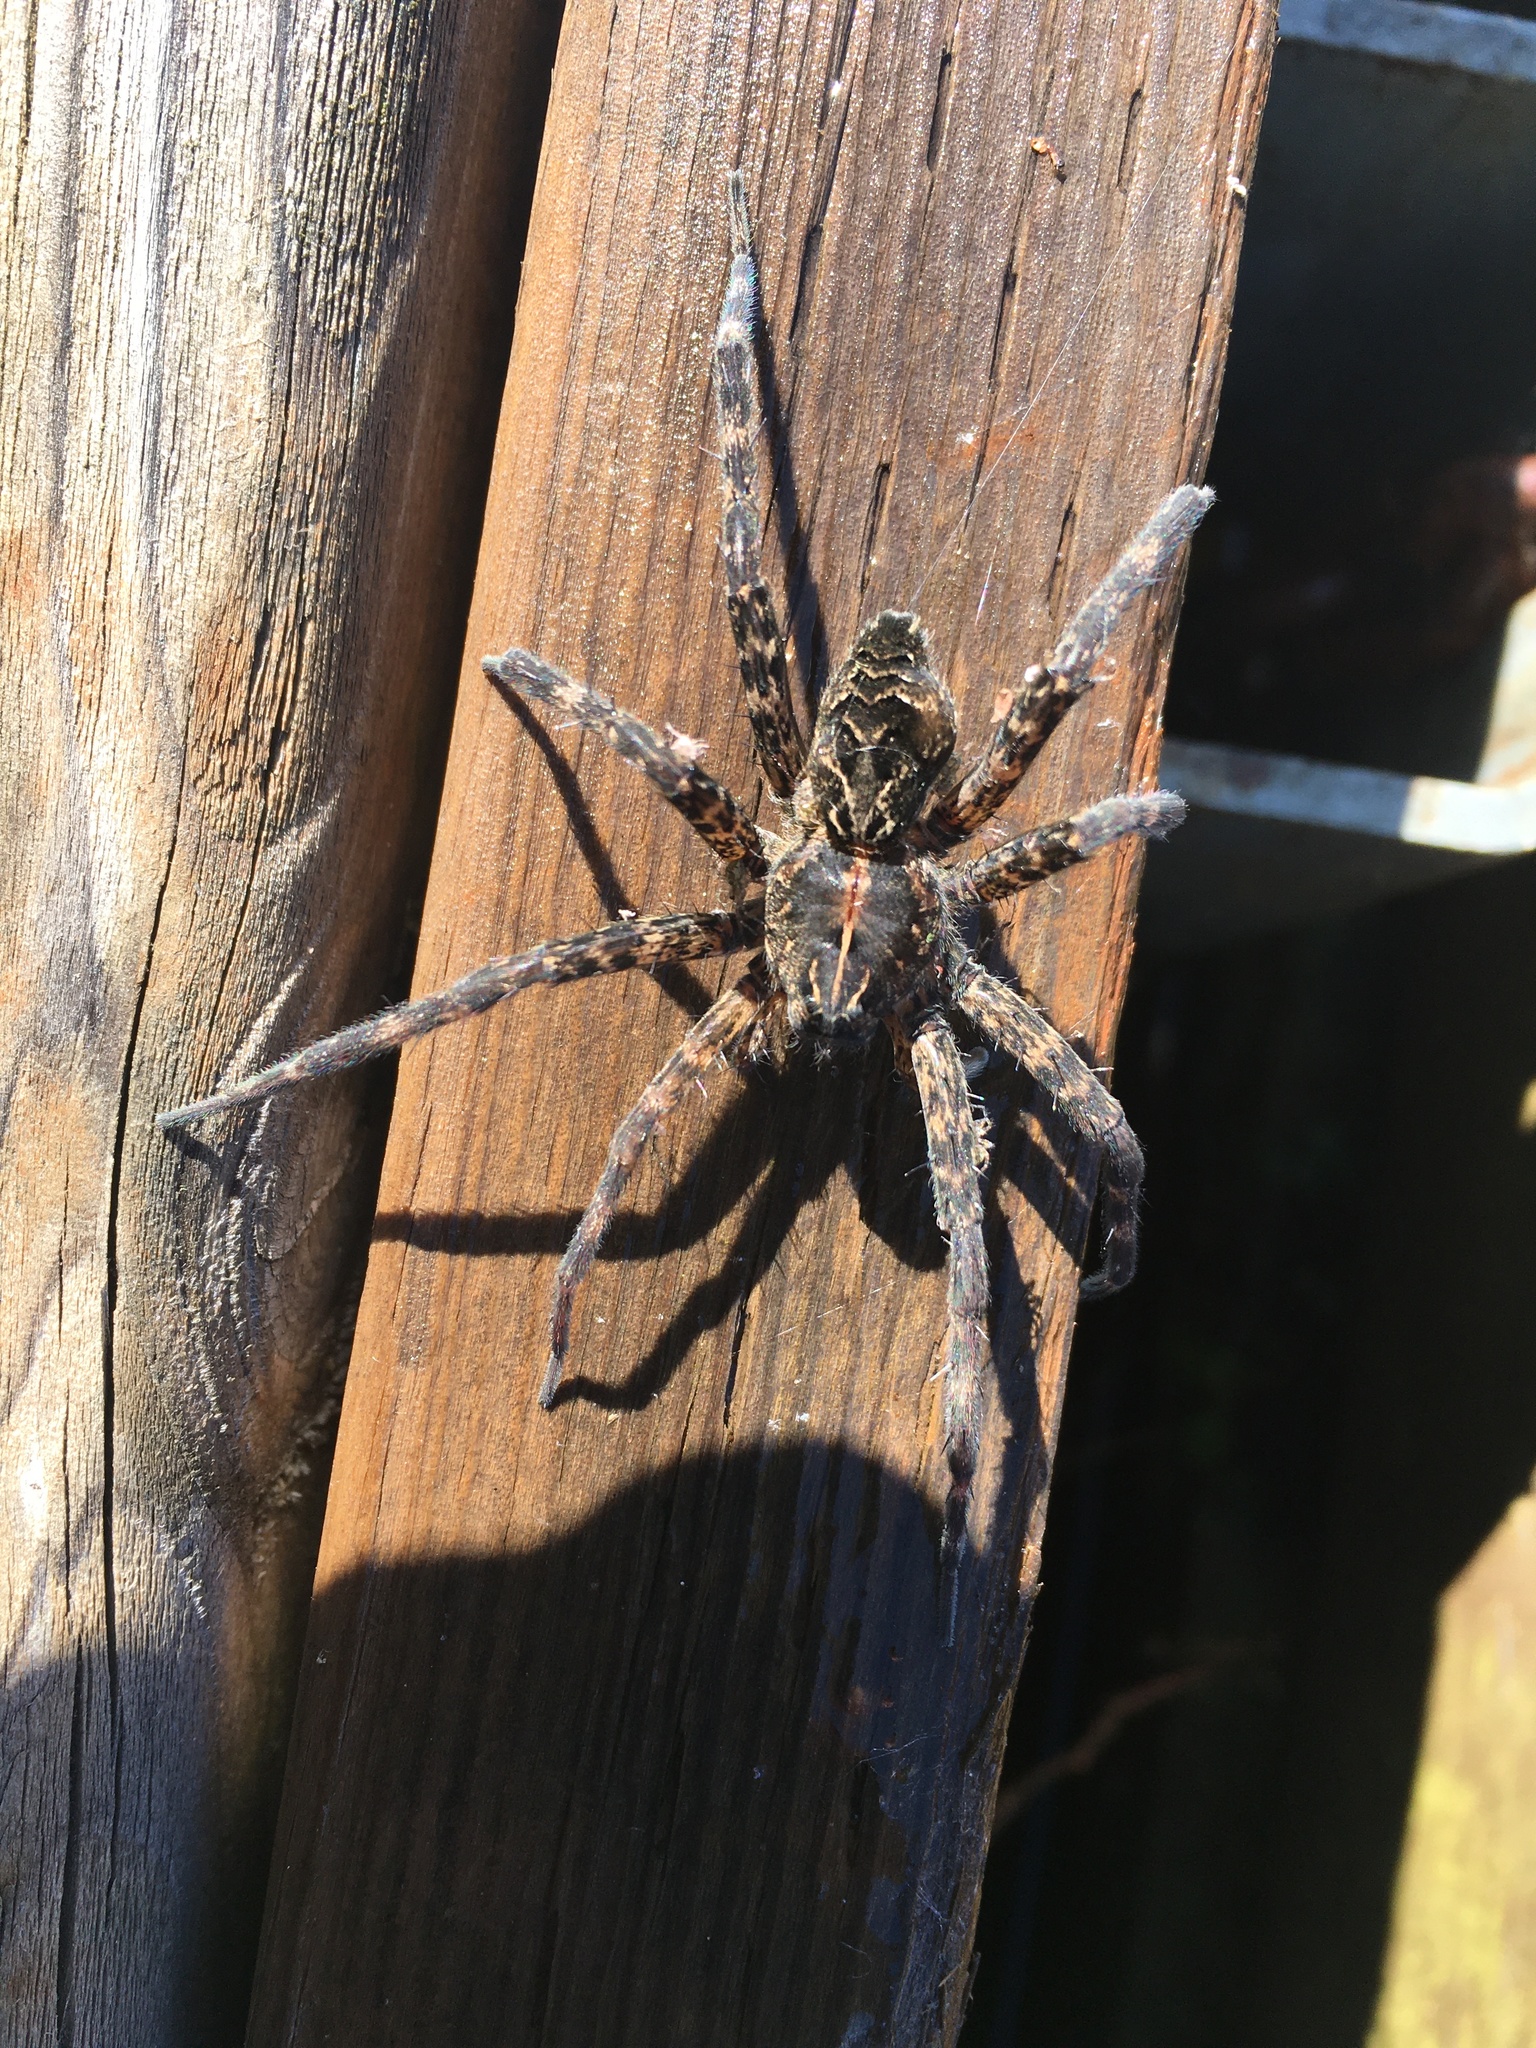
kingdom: Animalia
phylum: Arthropoda
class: Arachnida
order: Araneae
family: Pisauridae
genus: Dolomedes
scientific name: Dolomedes scriptus
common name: Striped fishing spider
